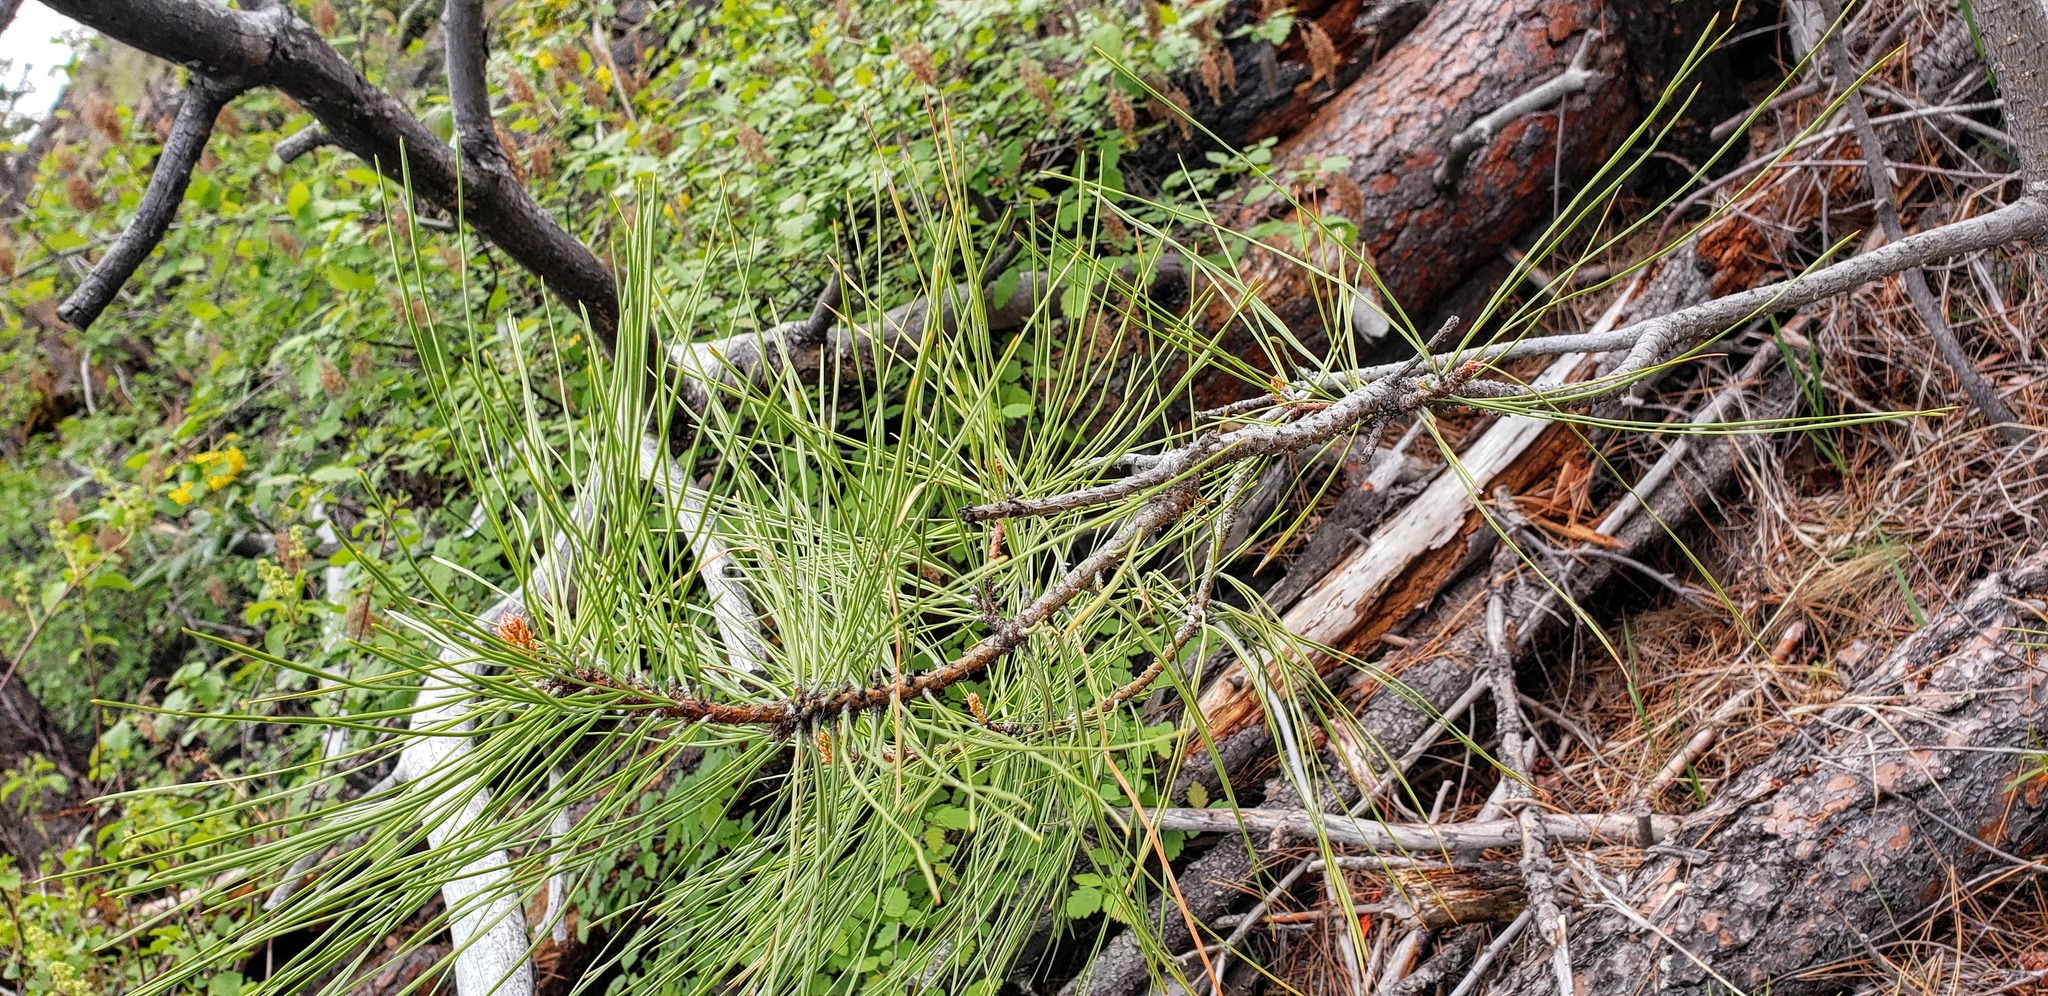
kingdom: Plantae
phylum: Tracheophyta
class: Pinopsida
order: Pinales
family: Pinaceae
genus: Pinus
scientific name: Pinus ponderosa
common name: Western yellow-pine
